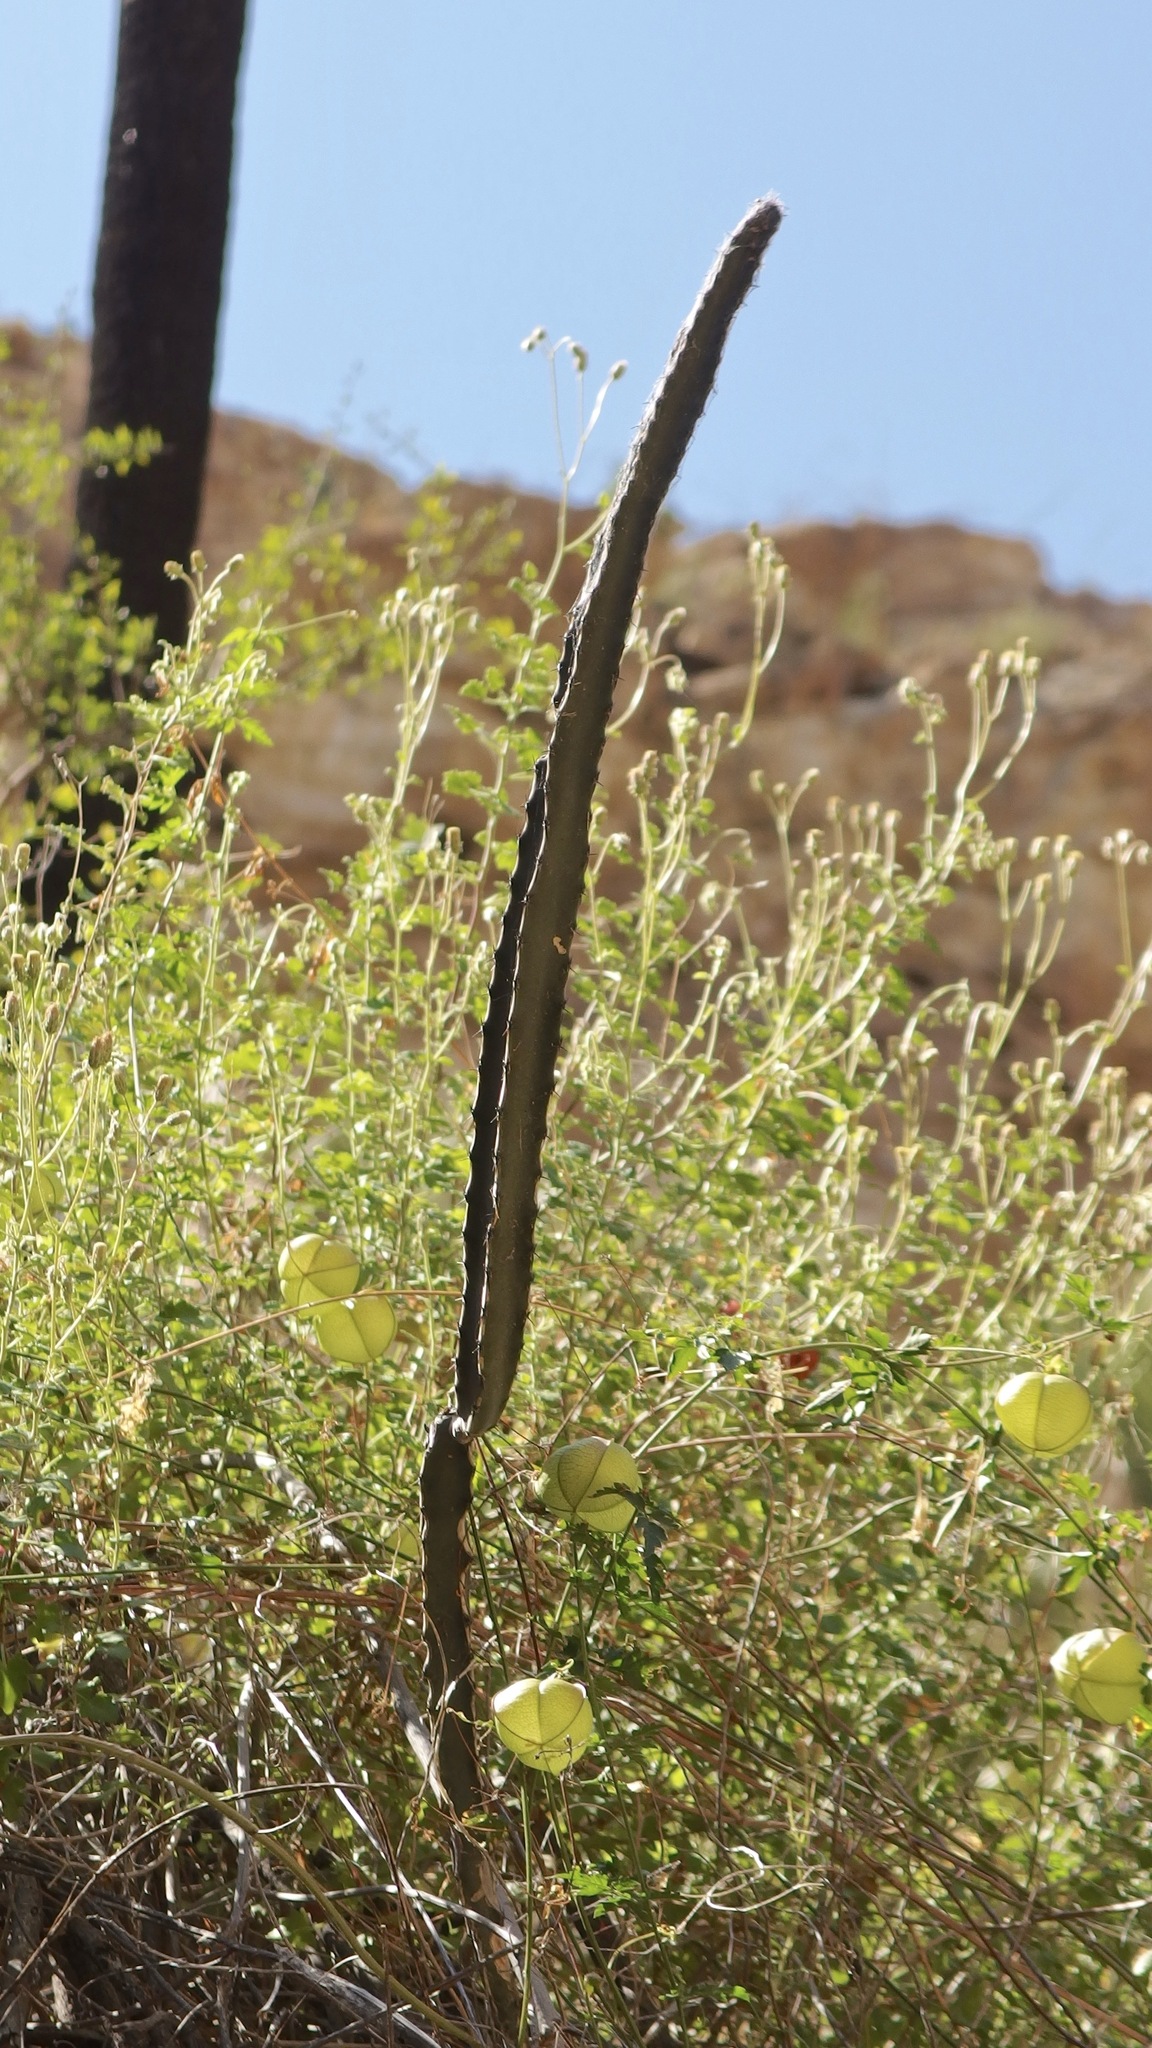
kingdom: Plantae
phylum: Tracheophyta
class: Magnoliopsida
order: Caryophyllales
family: Cactaceae
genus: Peniocereus
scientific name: Peniocereus marianus
